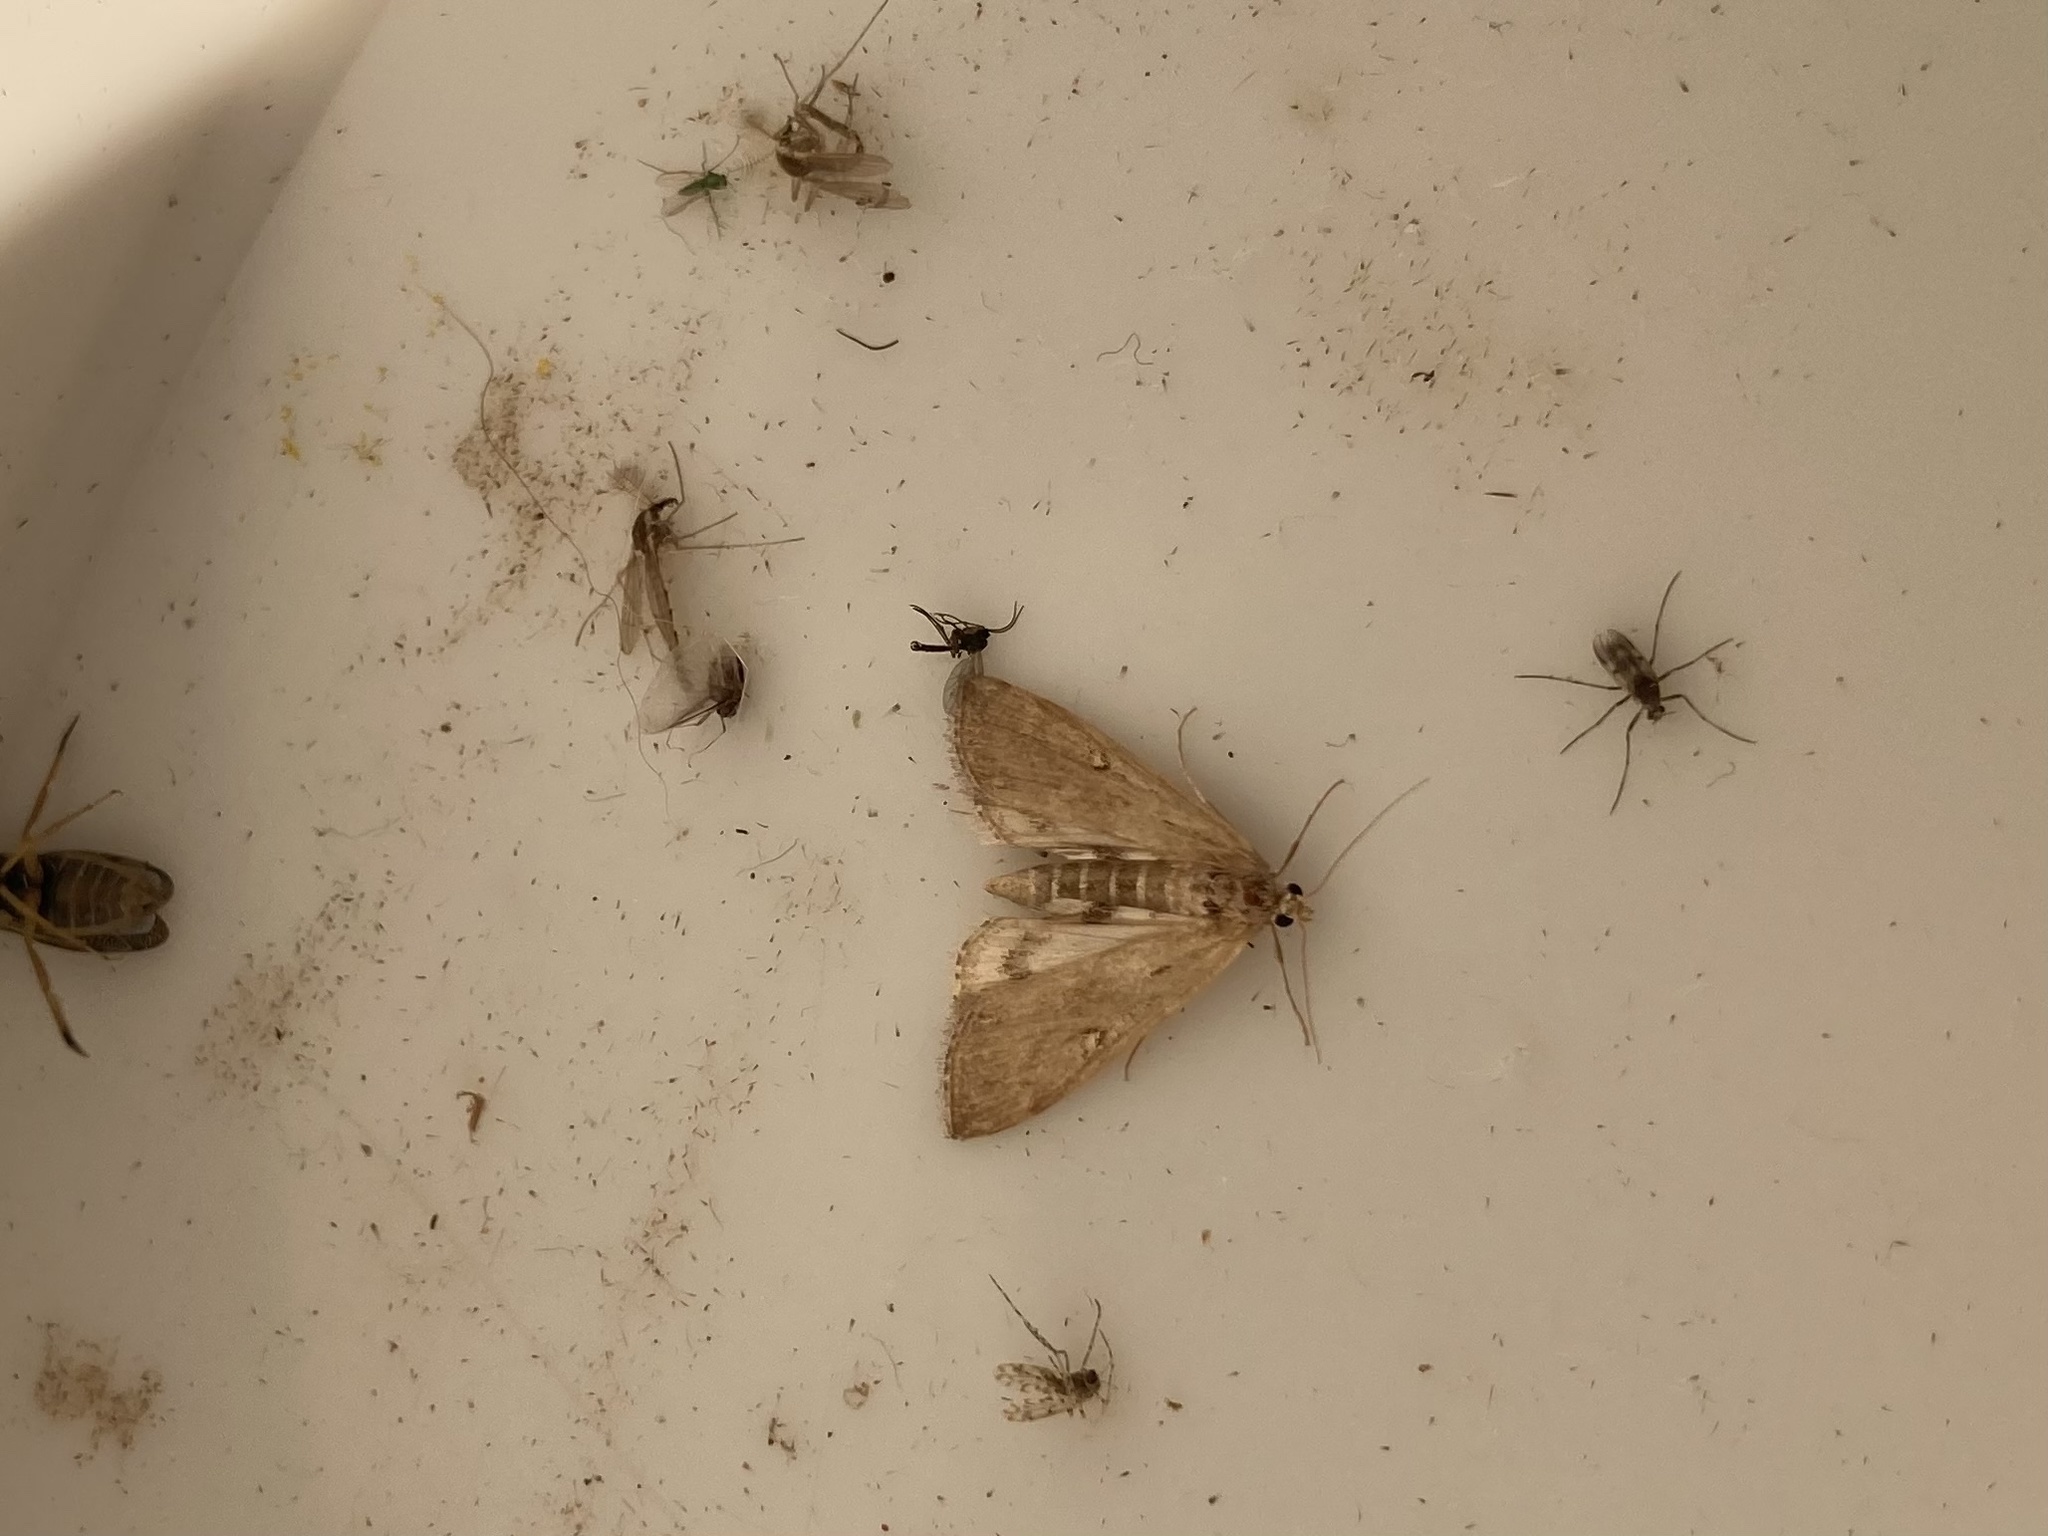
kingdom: Animalia
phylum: Arthropoda
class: Insecta
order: Lepidoptera
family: Crambidae
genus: Parapoynx
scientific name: Parapoynx stratiotata
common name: Ringed china-mark
